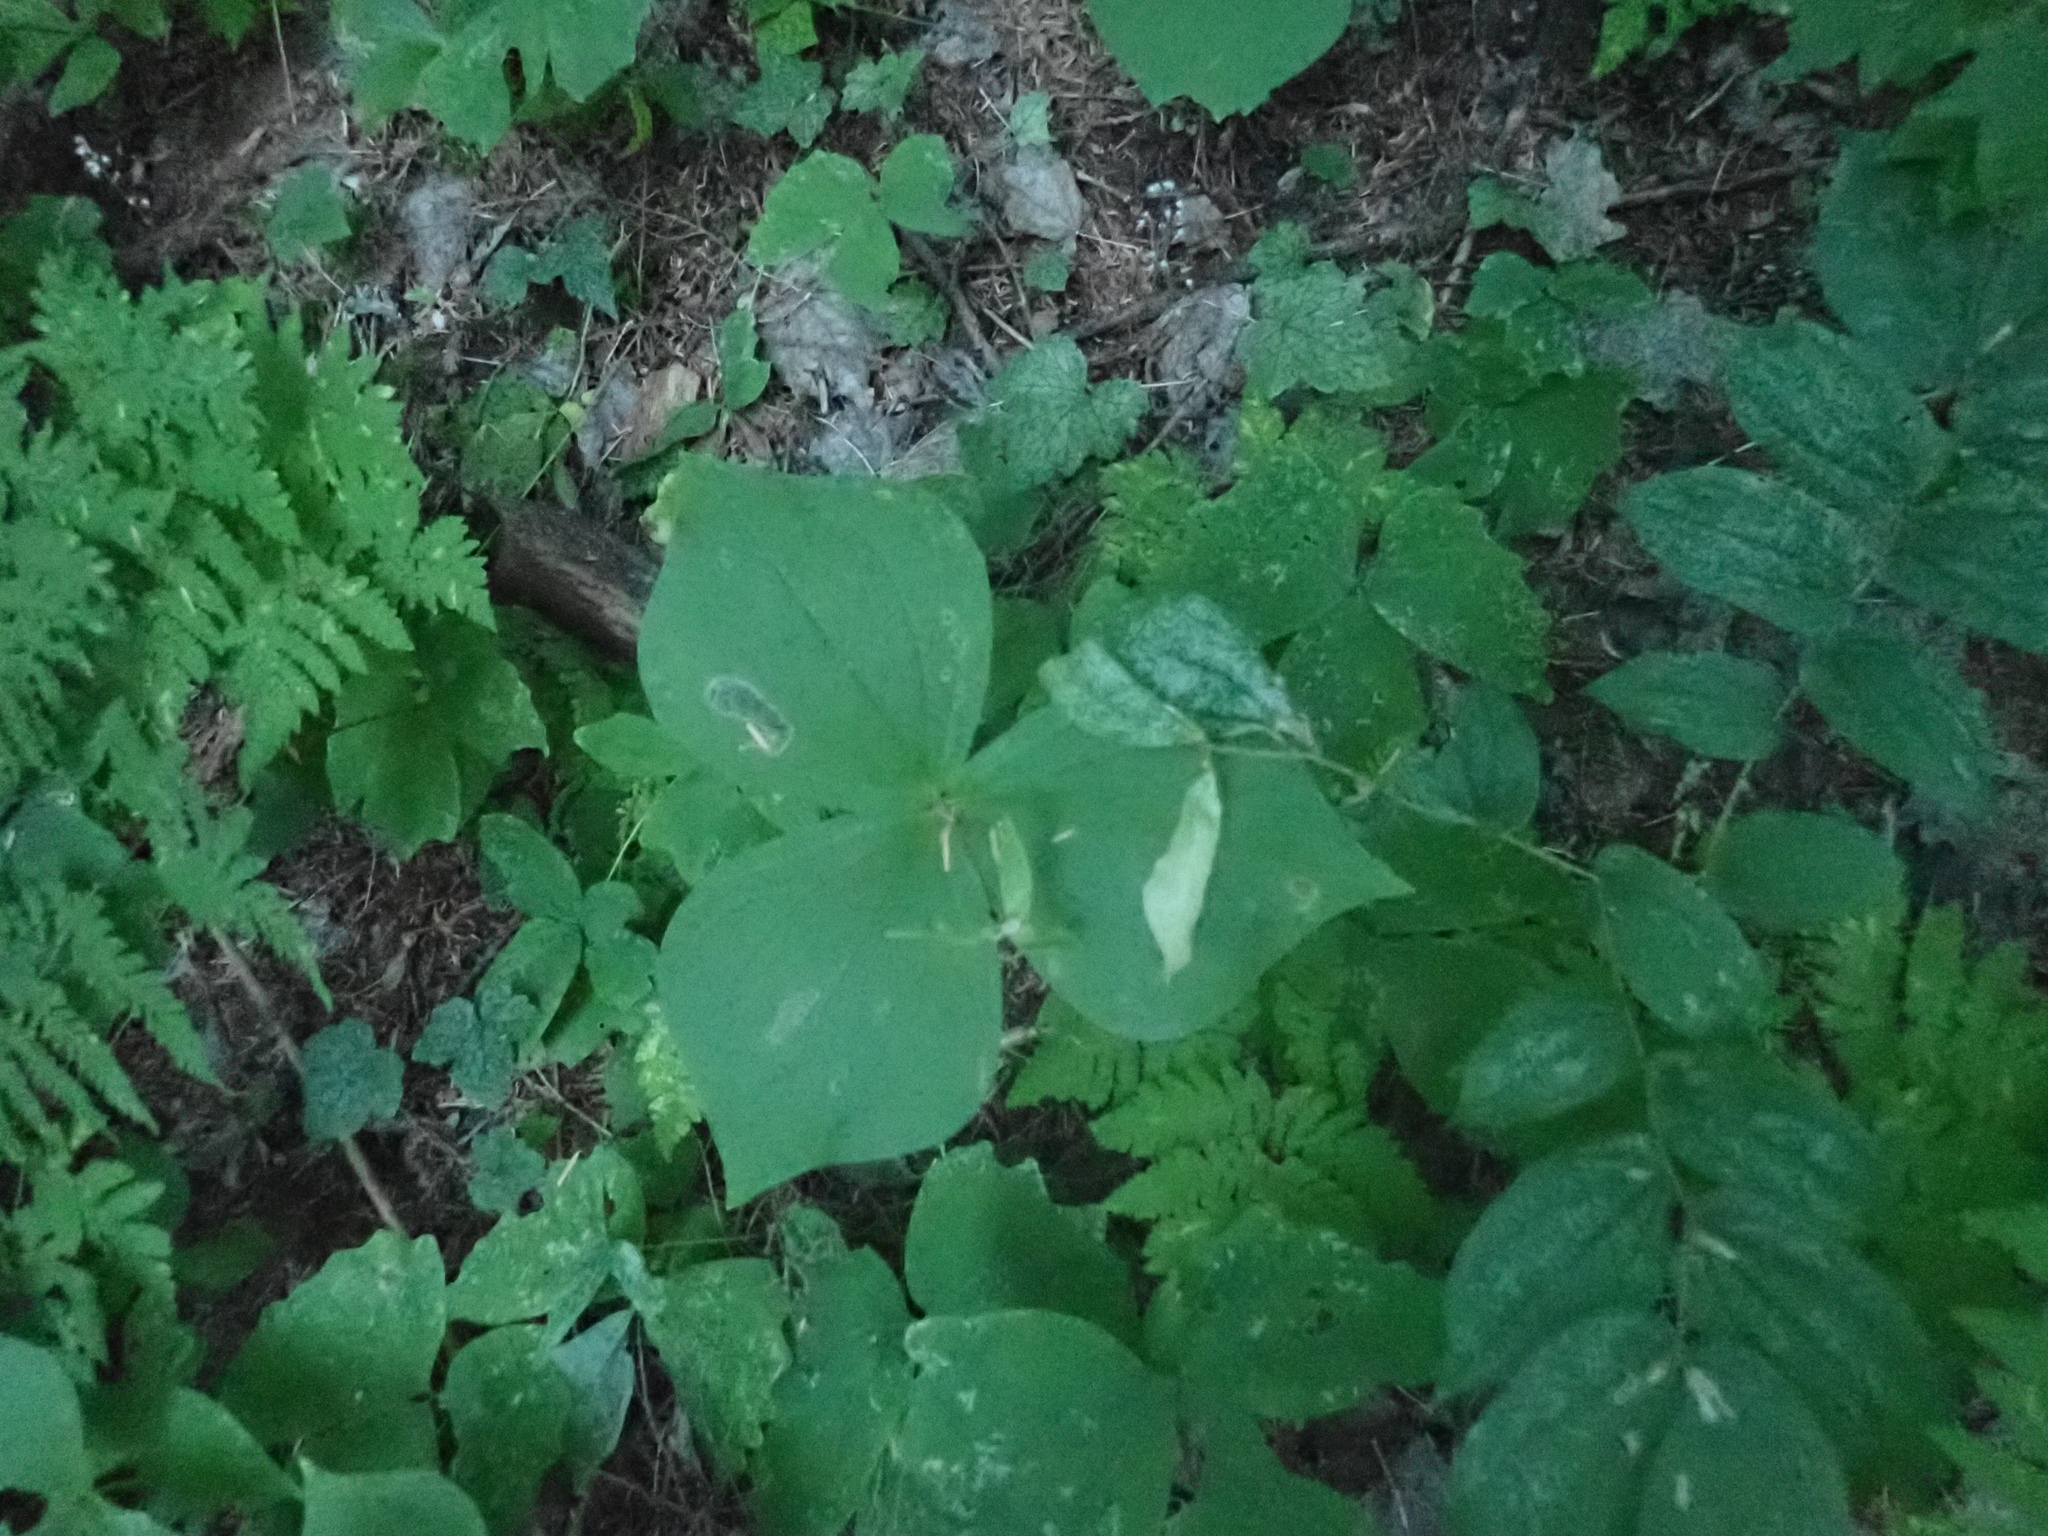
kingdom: Plantae
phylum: Tracheophyta
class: Liliopsida
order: Liliales
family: Melanthiaceae
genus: Trillium
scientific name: Trillium ovatum
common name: Pacific trillium
